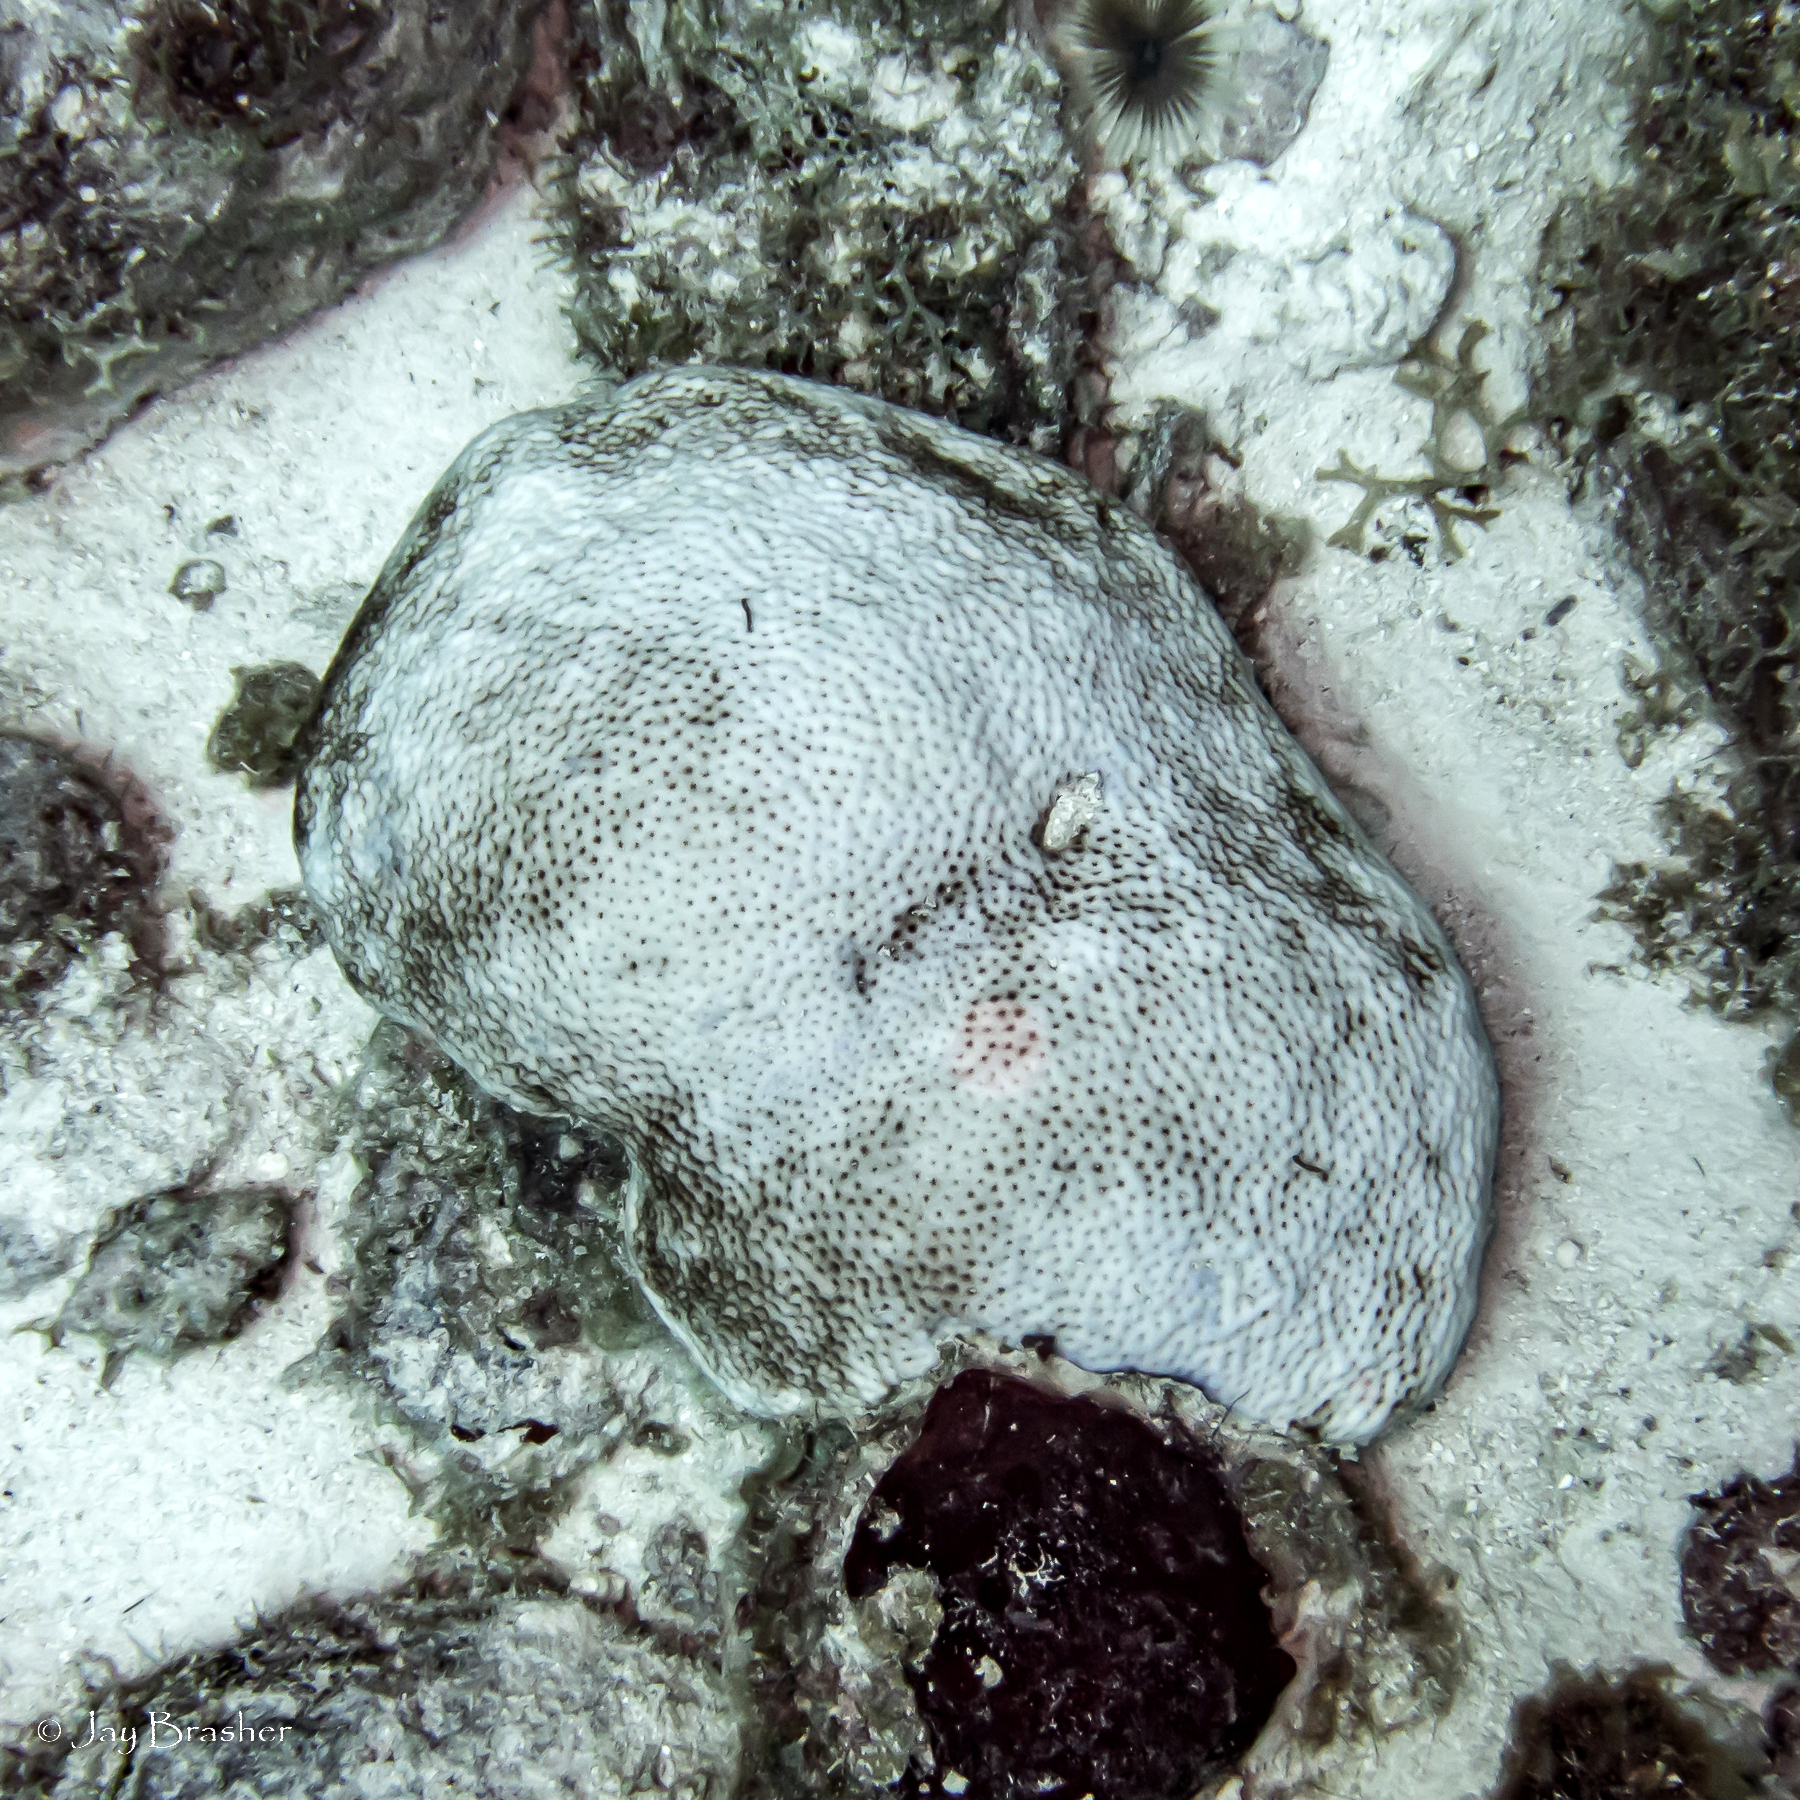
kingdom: Animalia
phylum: Cnidaria
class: Anthozoa
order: Scleractinia
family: Rhizangiidae
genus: Siderastrea
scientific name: Siderastrea siderea
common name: Massive starlet coral
